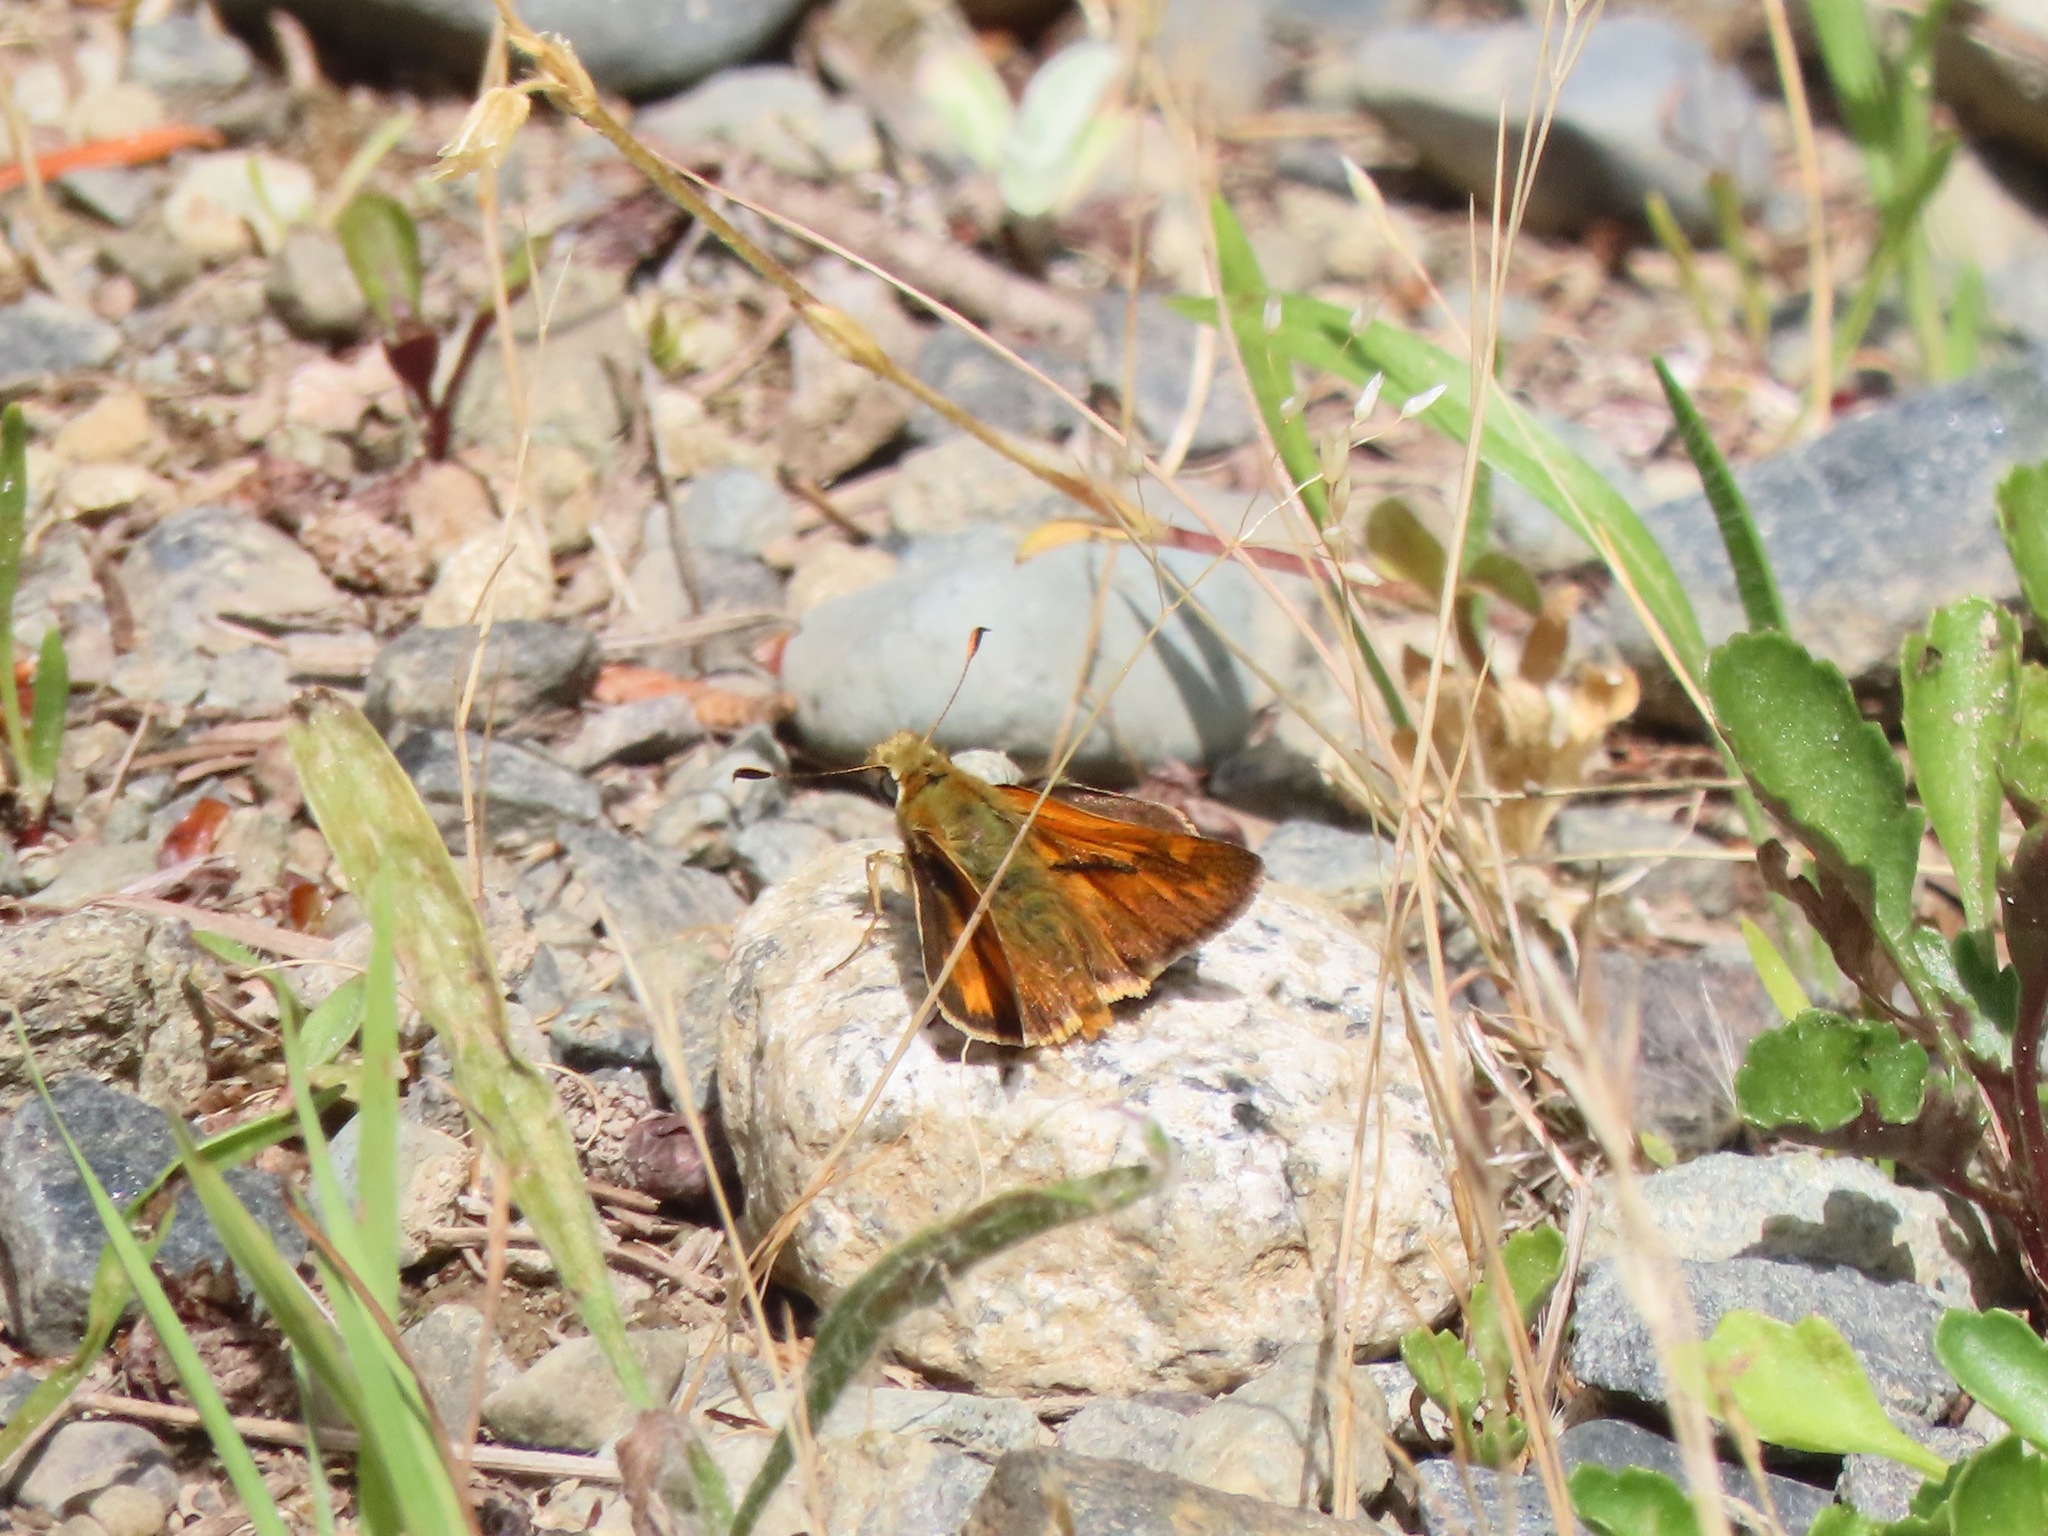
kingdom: Animalia
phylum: Arthropoda
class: Insecta
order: Lepidoptera
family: Hesperiidae
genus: Ochlodes
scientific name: Ochlodes sylvanoides
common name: Woodland skipper
